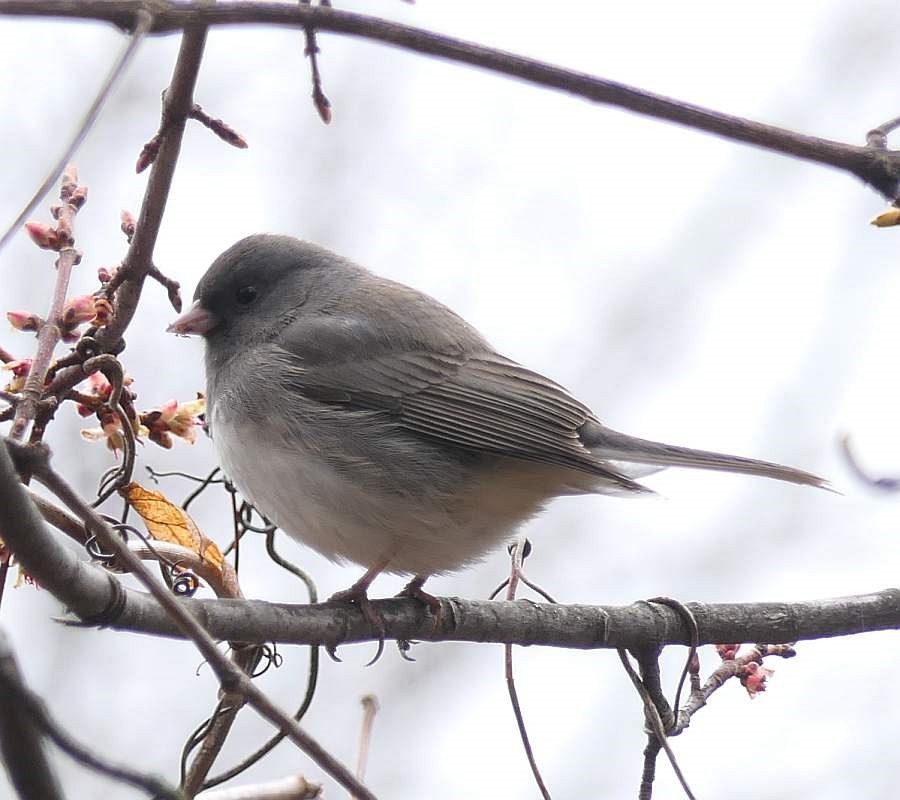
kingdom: Animalia
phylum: Chordata
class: Aves
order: Passeriformes
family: Passerellidae
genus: Junco
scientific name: Junco hyemalis
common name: Dark-eyed junco
